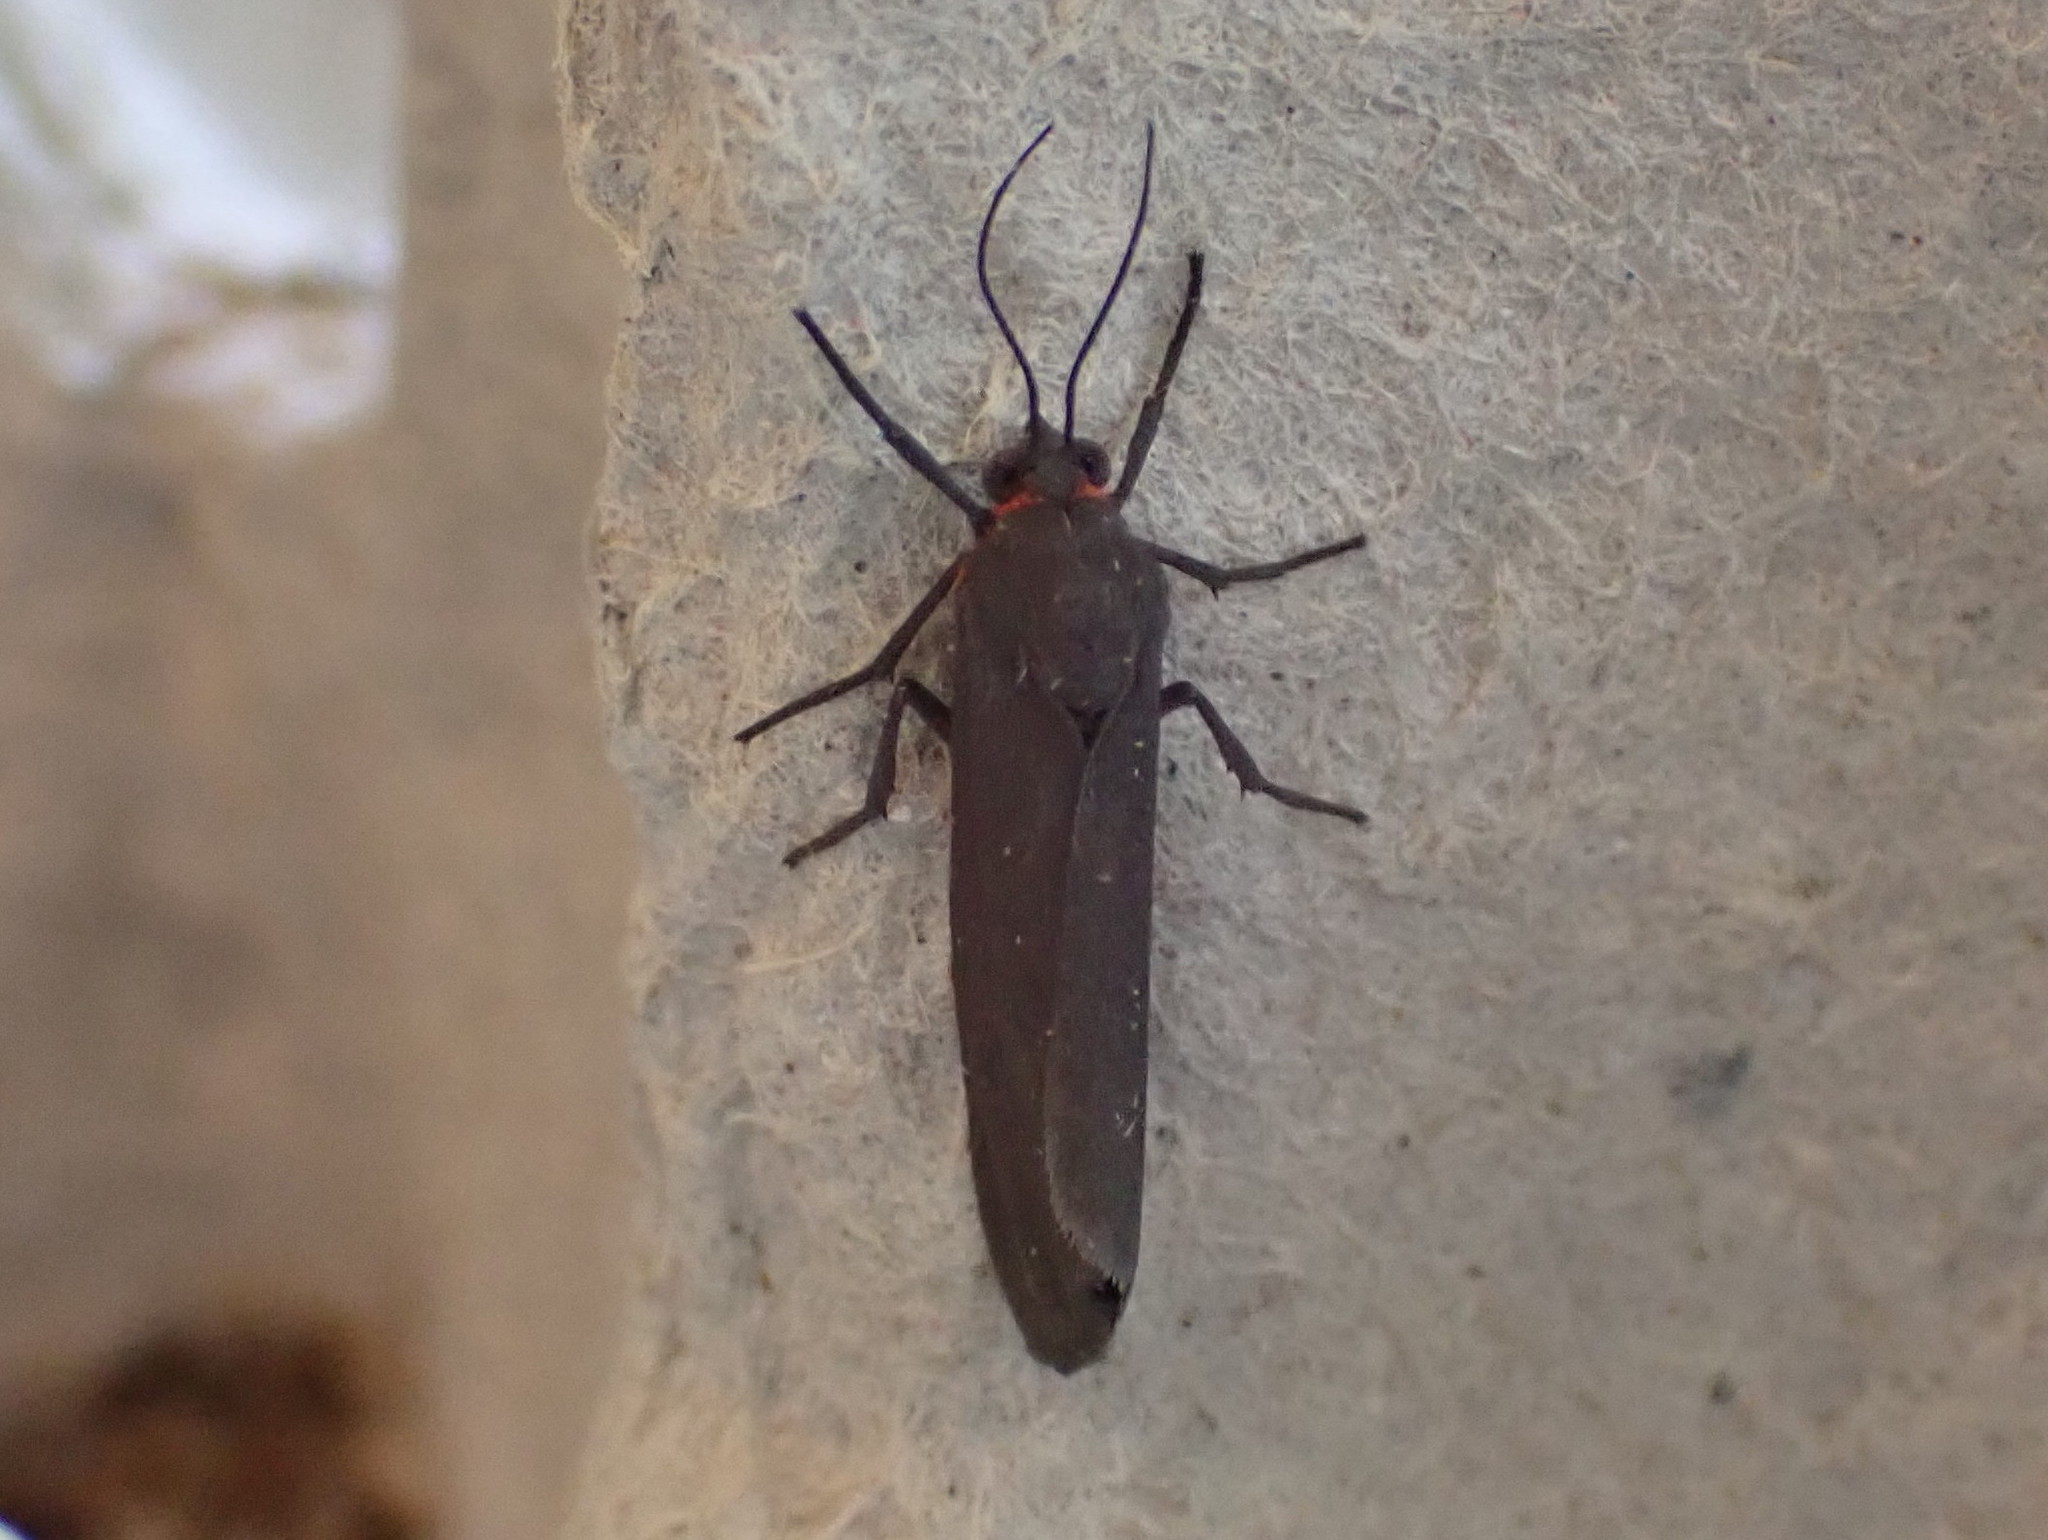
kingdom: Animalia
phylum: Arthropoda
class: Insecta
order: Lepidoptera
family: Erebidae
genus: Virbia
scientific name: Virbia laeta
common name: Joyful holomelina moth
